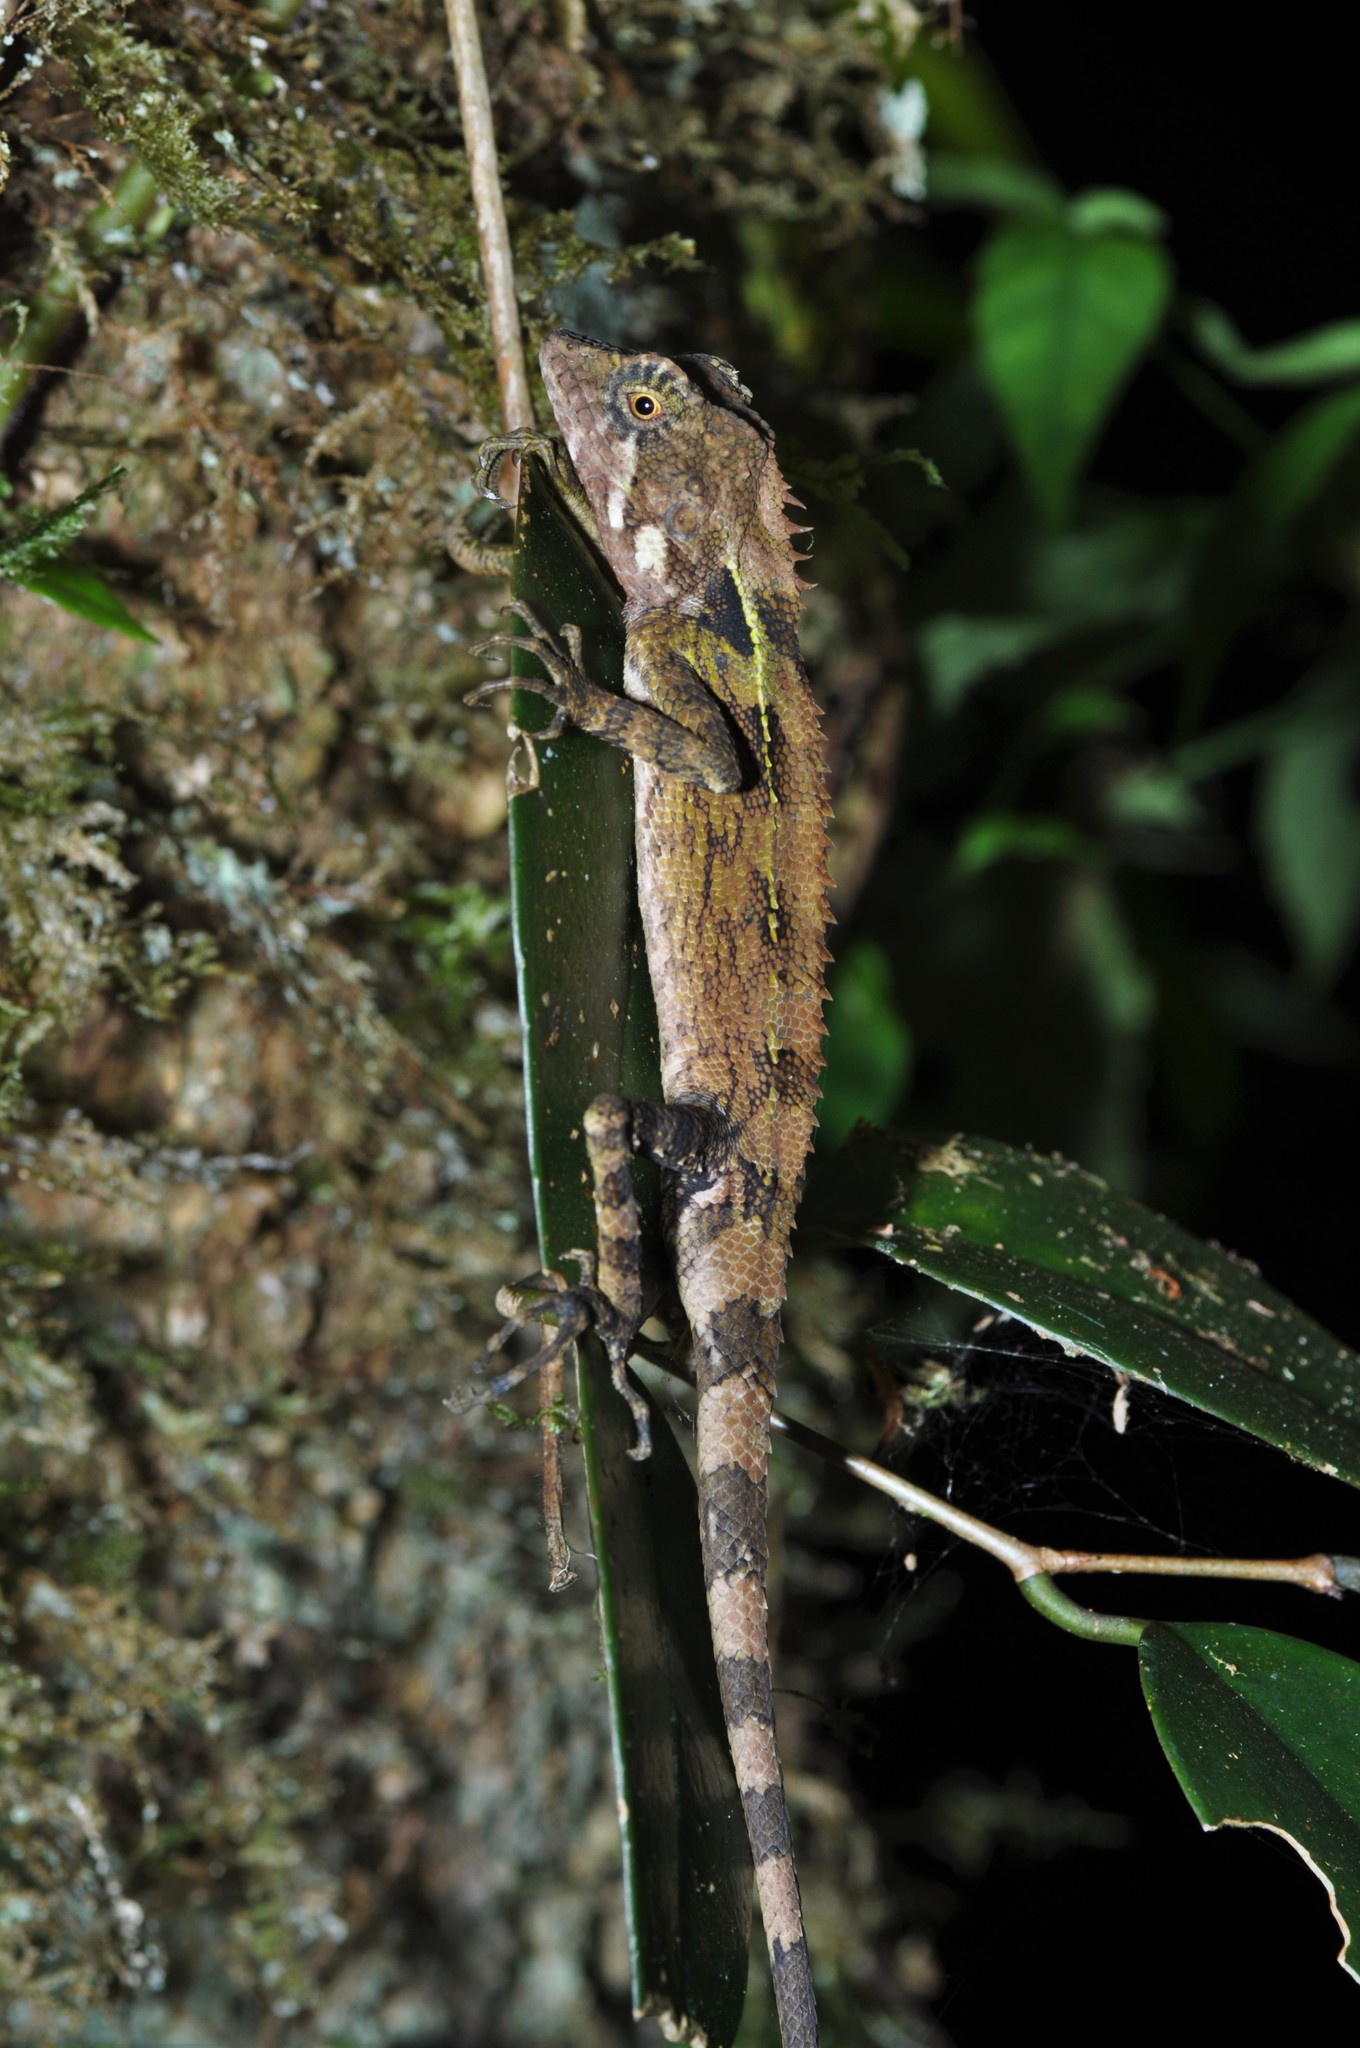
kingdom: Animalia
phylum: Chordata
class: Squamata
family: Agamidae
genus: Dendragama
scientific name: Dendragama boulengeri
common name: Boulenger's tree agama
